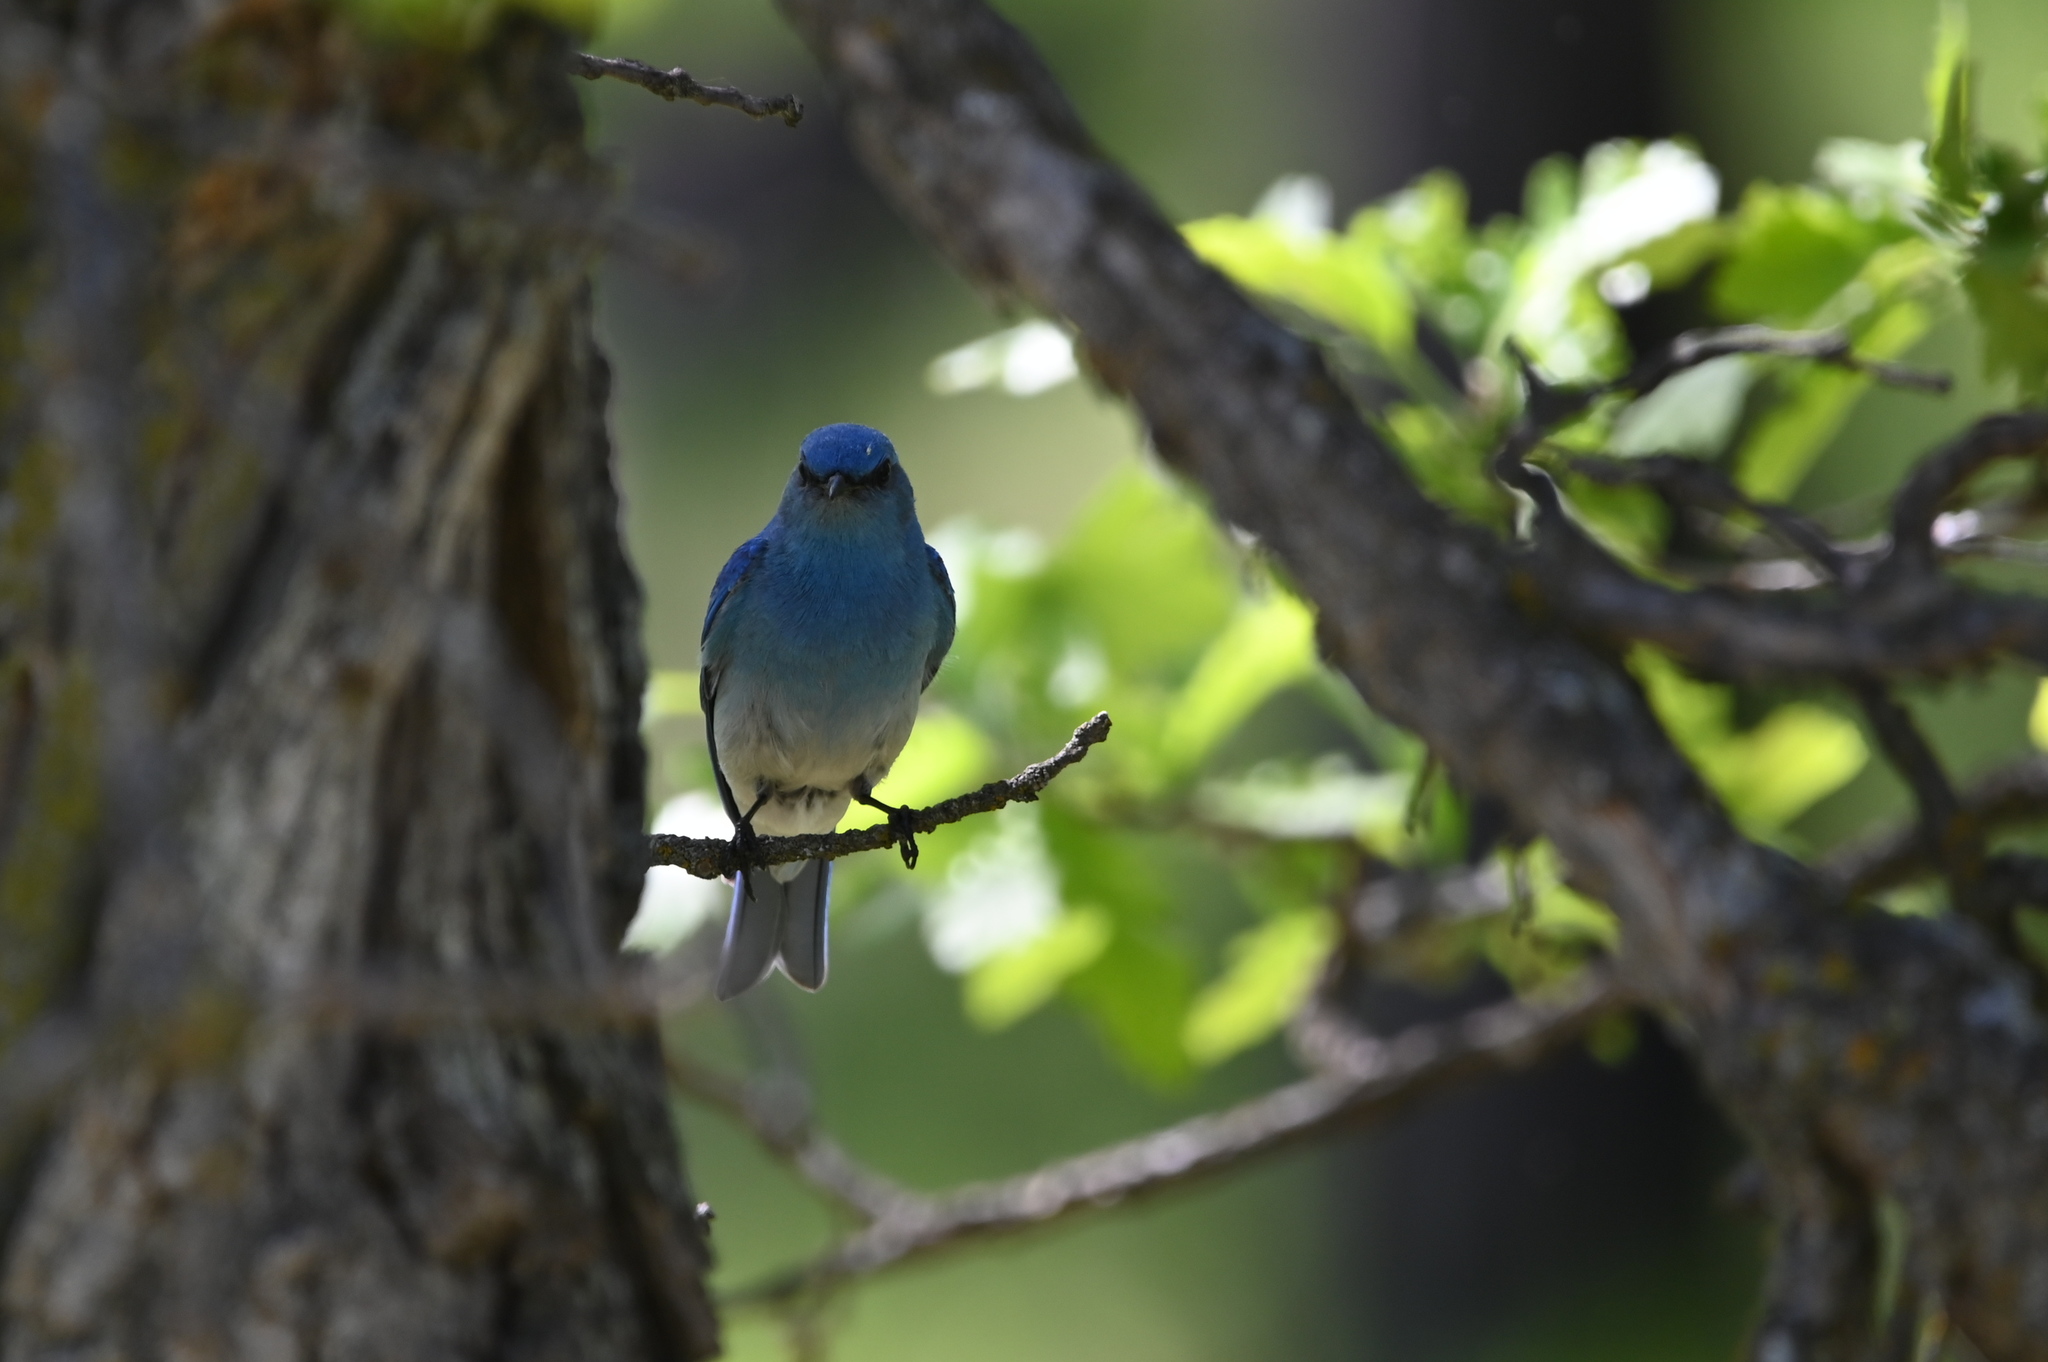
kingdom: Animalia
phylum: Chordata
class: Aves
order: Passeriformes
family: Turdidae
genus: Sialia
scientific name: Sialia currucoides
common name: Mountain bluebird
